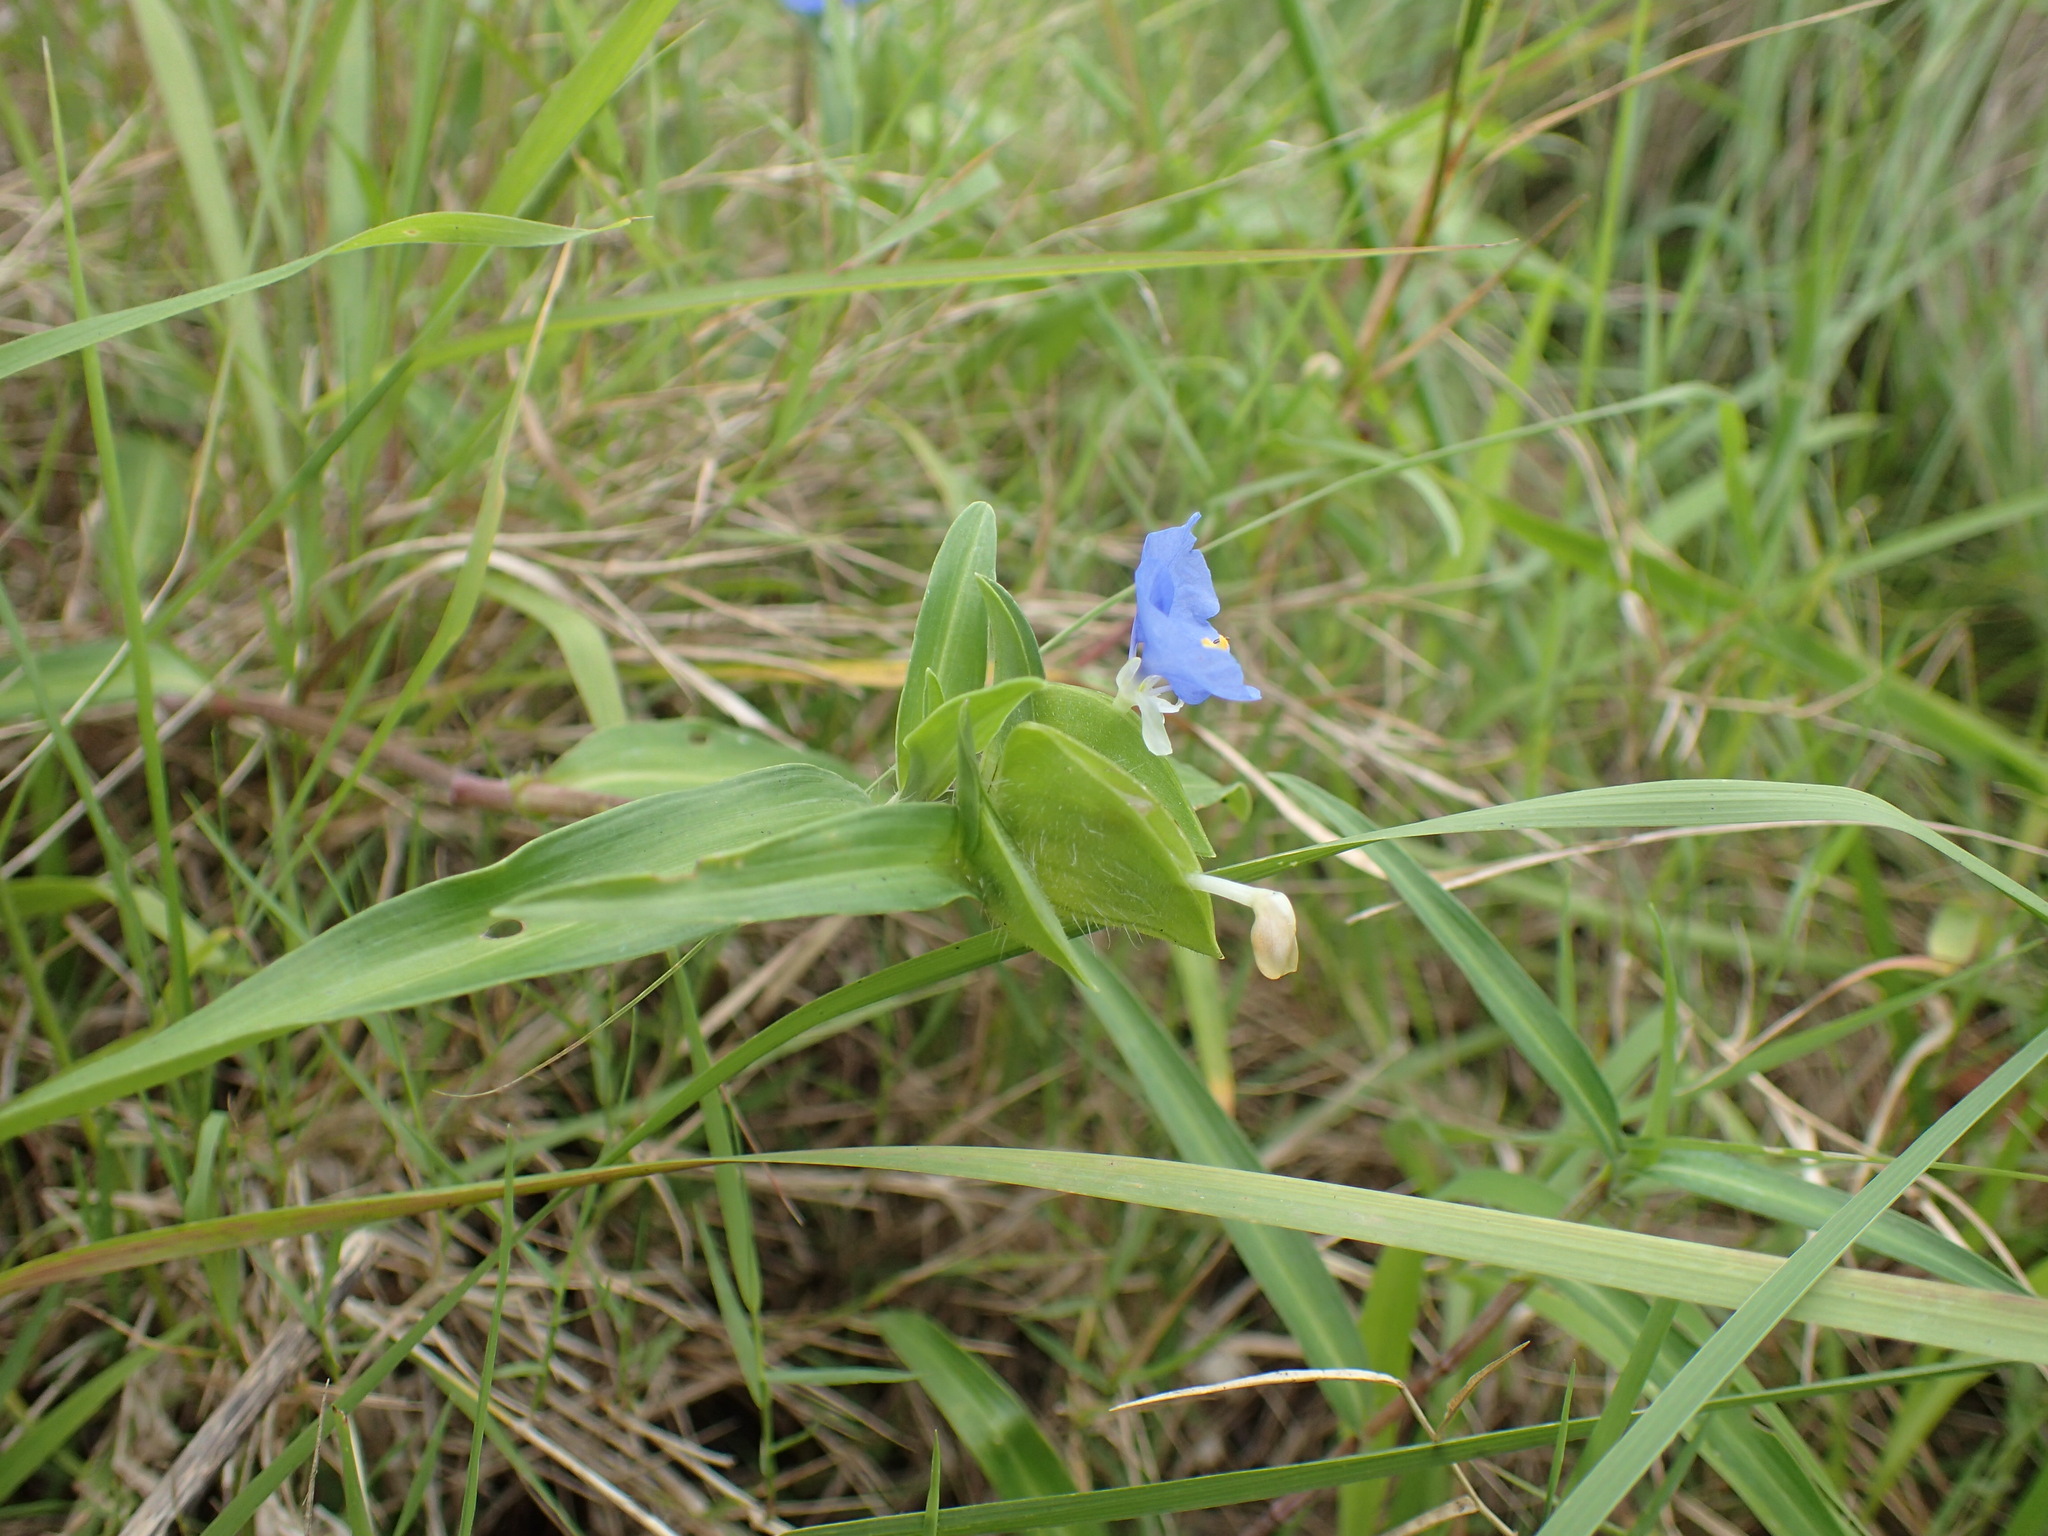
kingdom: Plantae
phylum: Tracheophyta
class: Liliopsida
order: Commelinales
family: Commelinaceae
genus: Commelina
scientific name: Commelina erecta
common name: Blousel blommetjie
